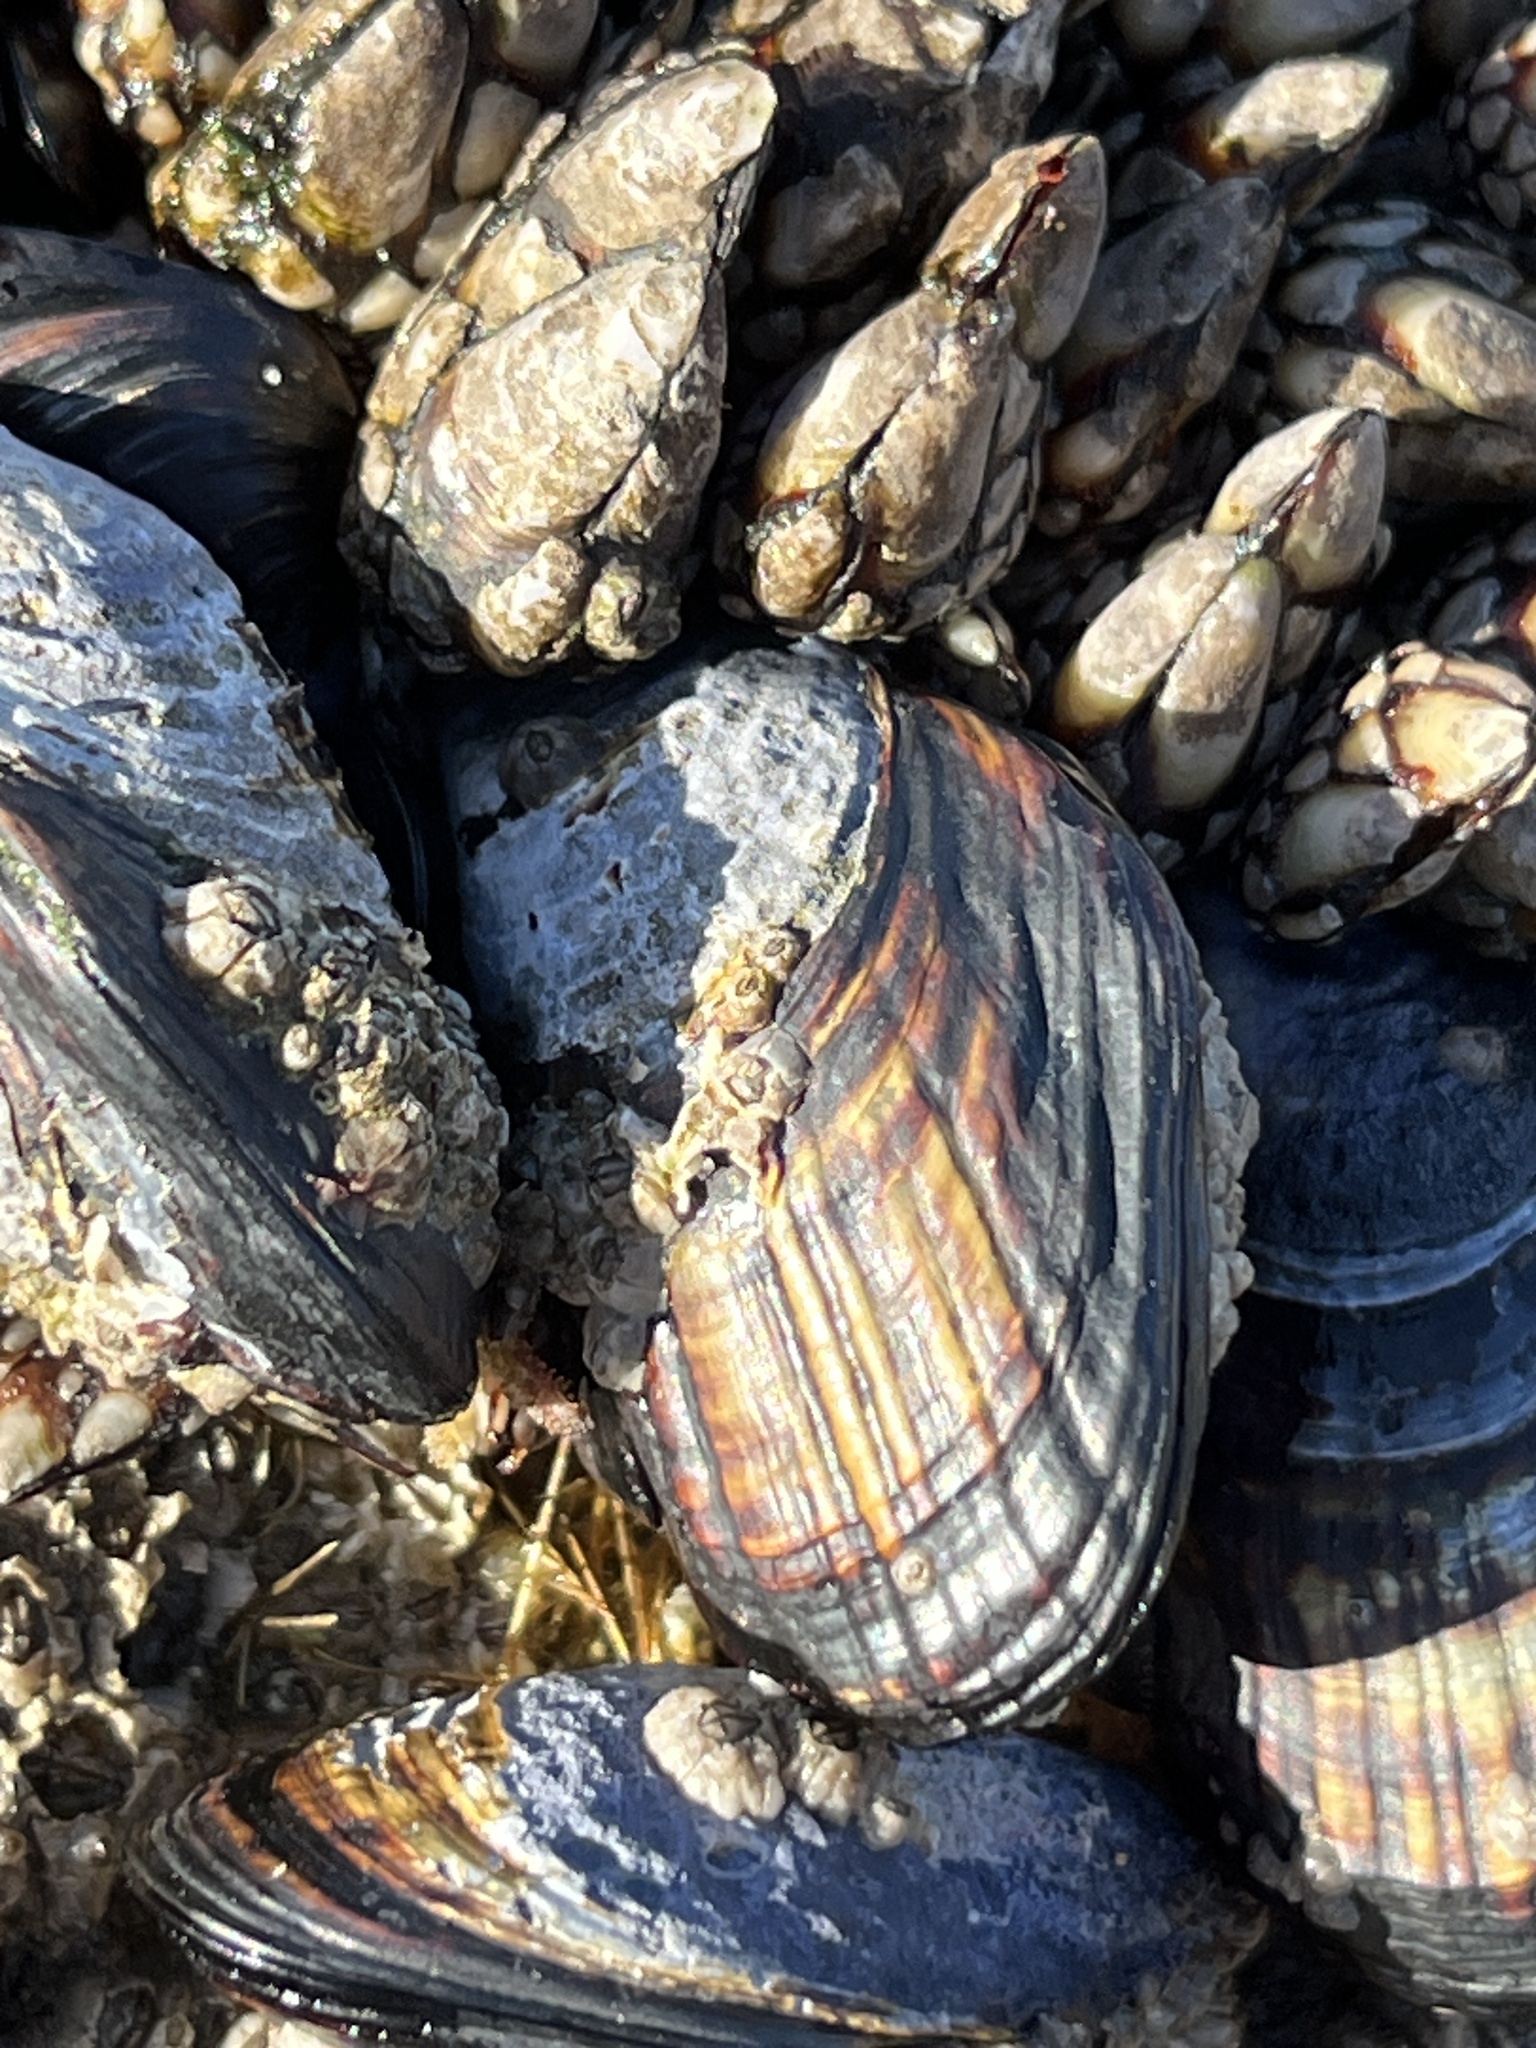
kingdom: Animalia
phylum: Mollusca
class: Bivalvia
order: Mytilida
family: Mytilidae
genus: Mytilus
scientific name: Mytilus californianus
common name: California mussel
